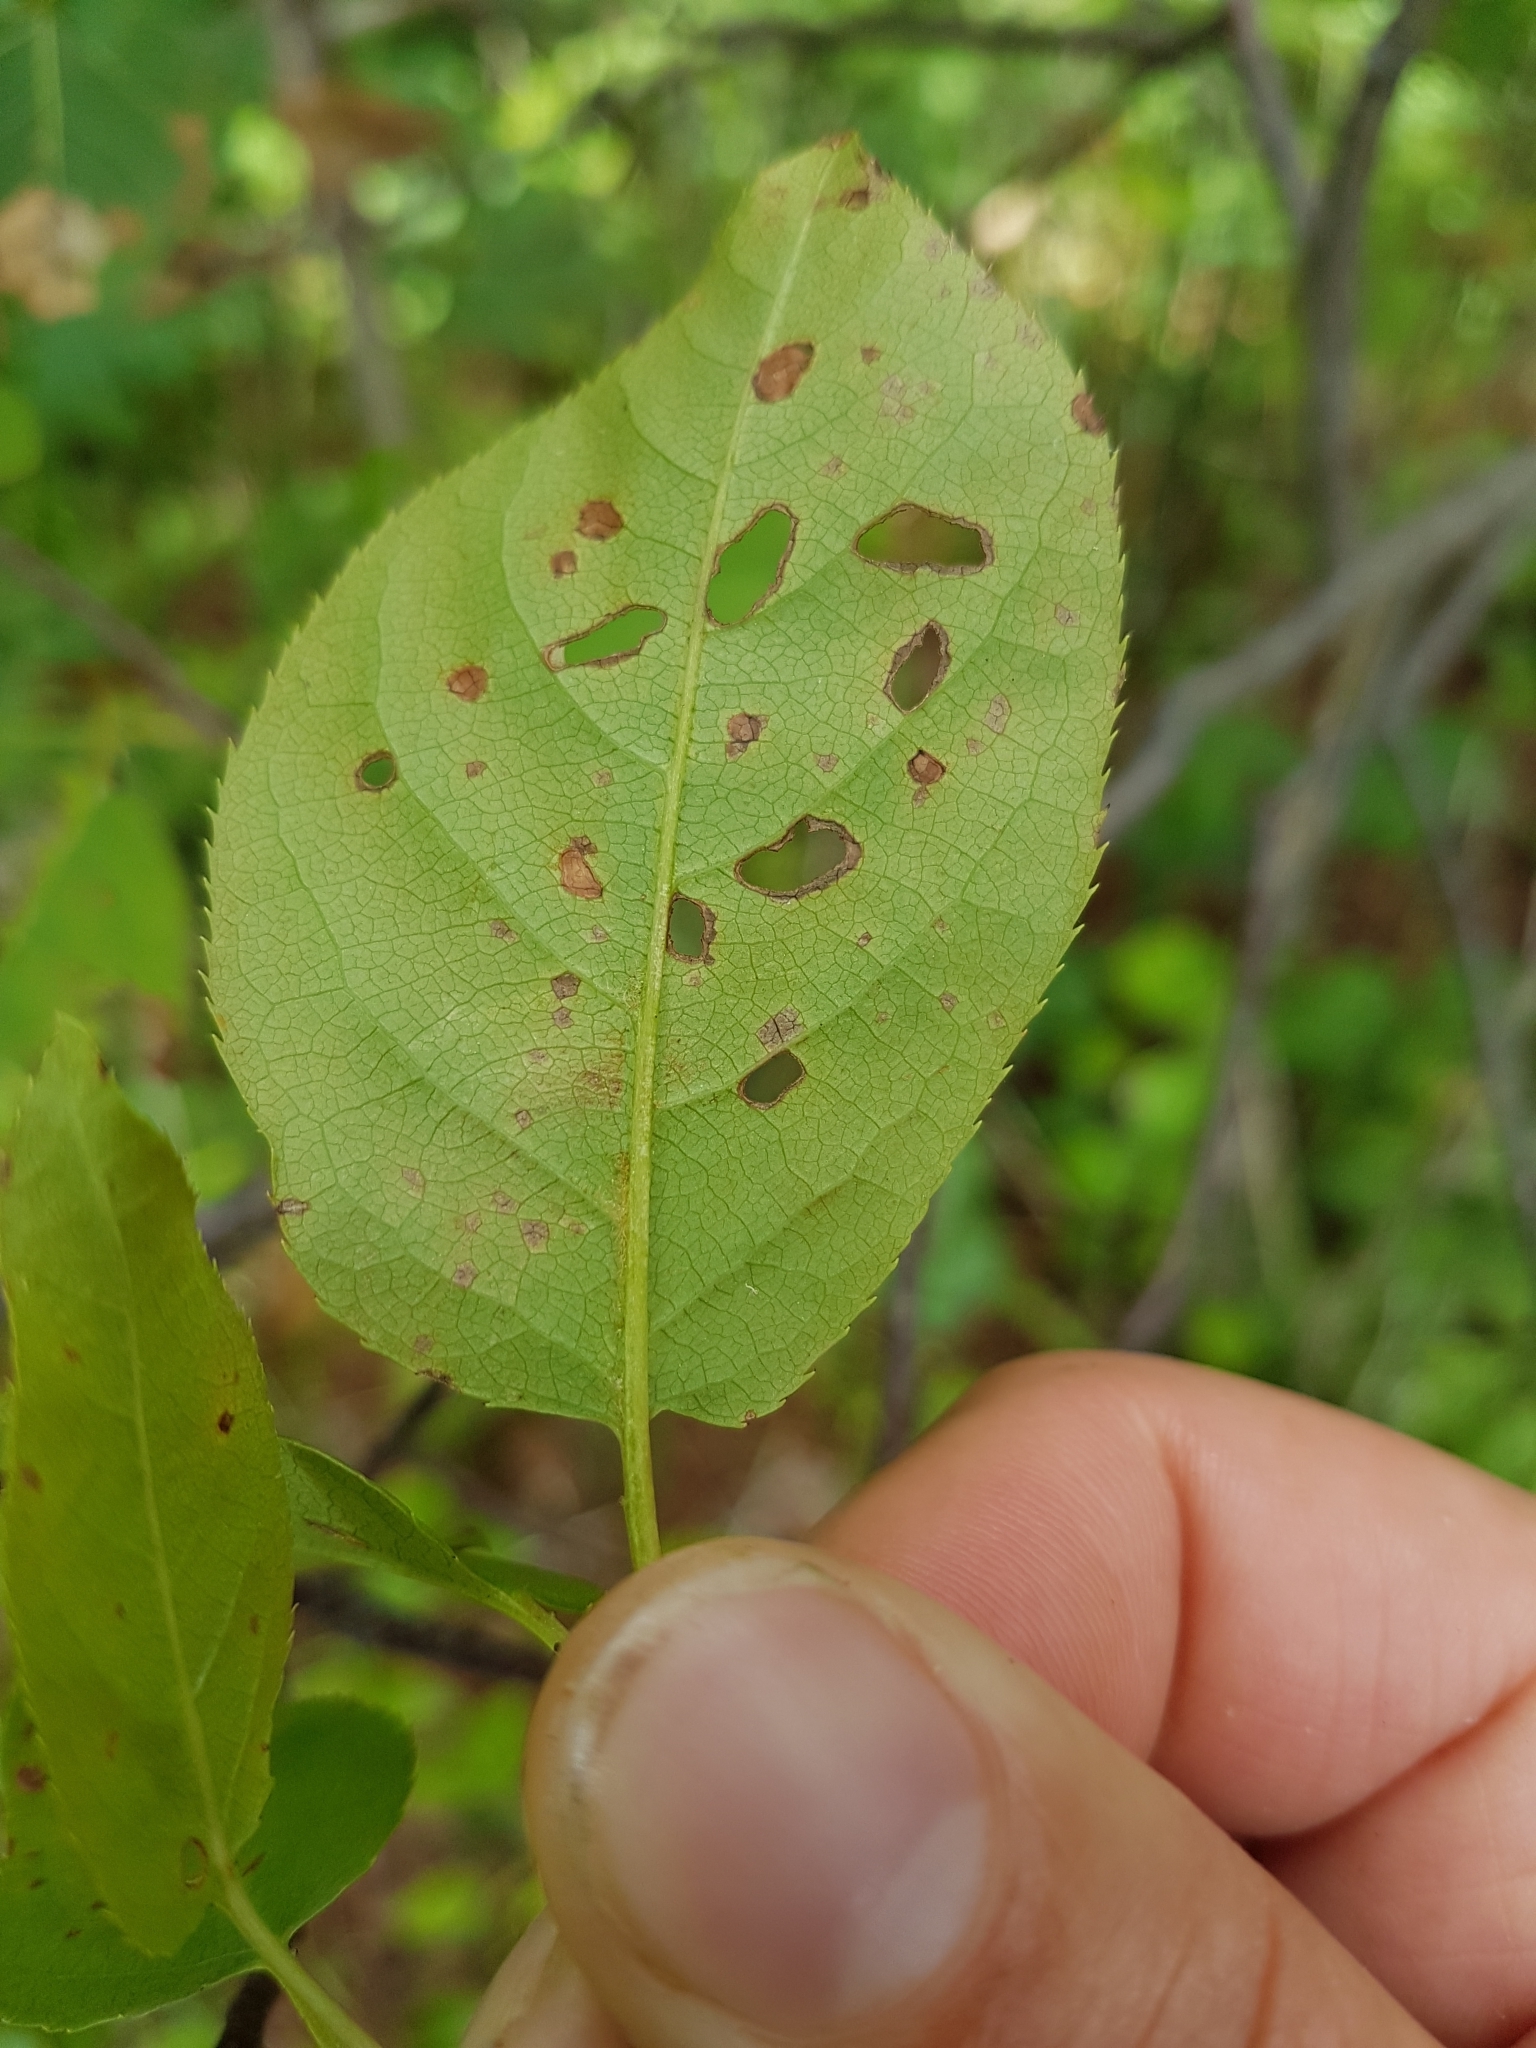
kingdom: Plantae
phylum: Tracheophyta
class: Magnoliopsida
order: Rosales
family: Rosaceae
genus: Prunus
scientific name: Prunus virginiana
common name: Chokecherry
